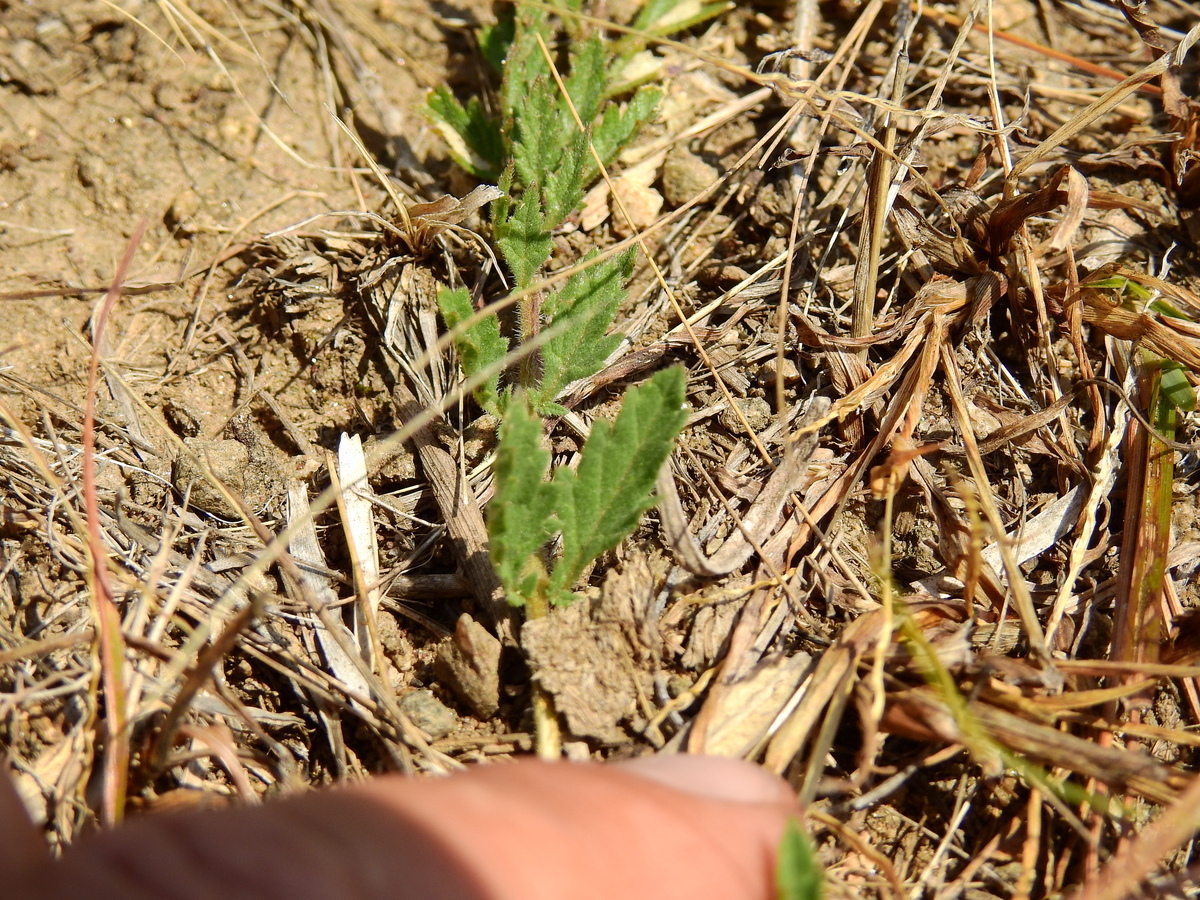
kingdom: Plantae
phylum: Tracheophyta
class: Magnoliopsida
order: Lamiales
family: Verbenaceae
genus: Verbena
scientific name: Verbena peruviana
